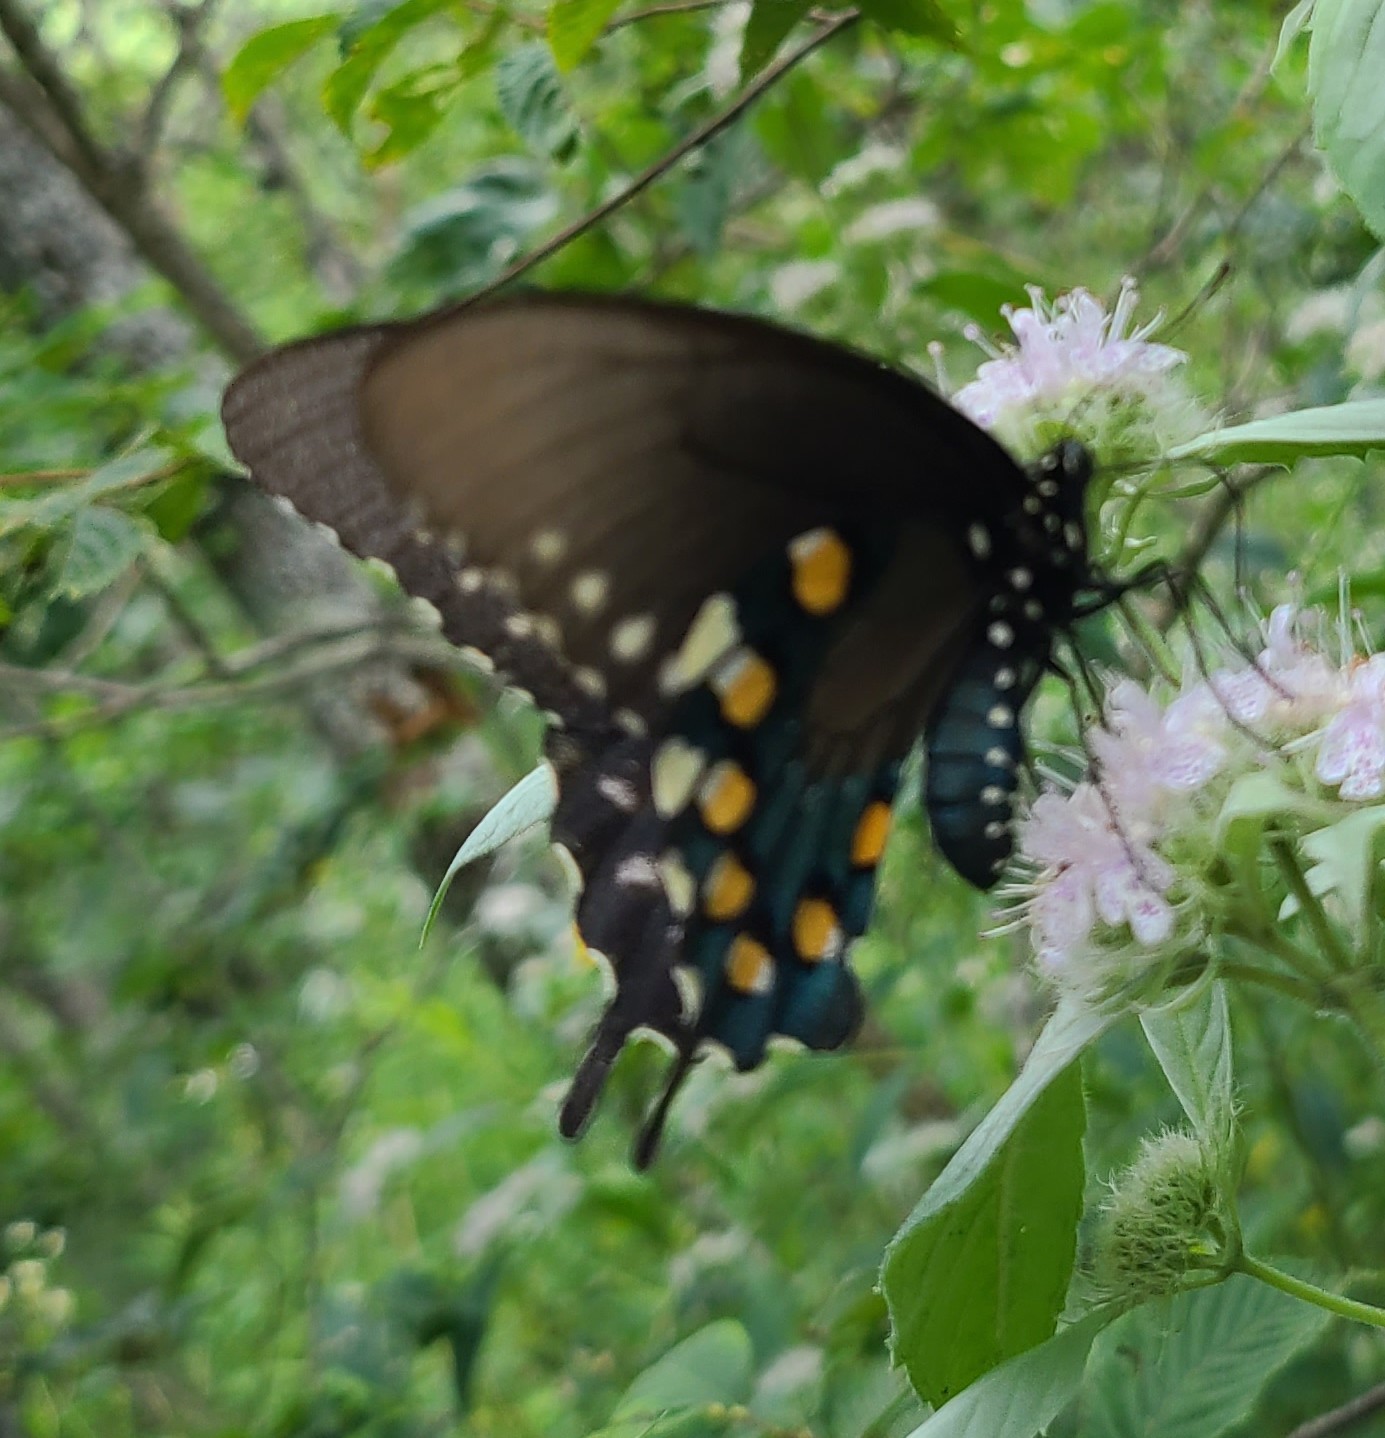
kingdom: Animalia
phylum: Arthropoda
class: Insecta
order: Lepidoptera
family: Papilionidae
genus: Battus
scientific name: Battus philenor
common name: Pipevine swallowtail
